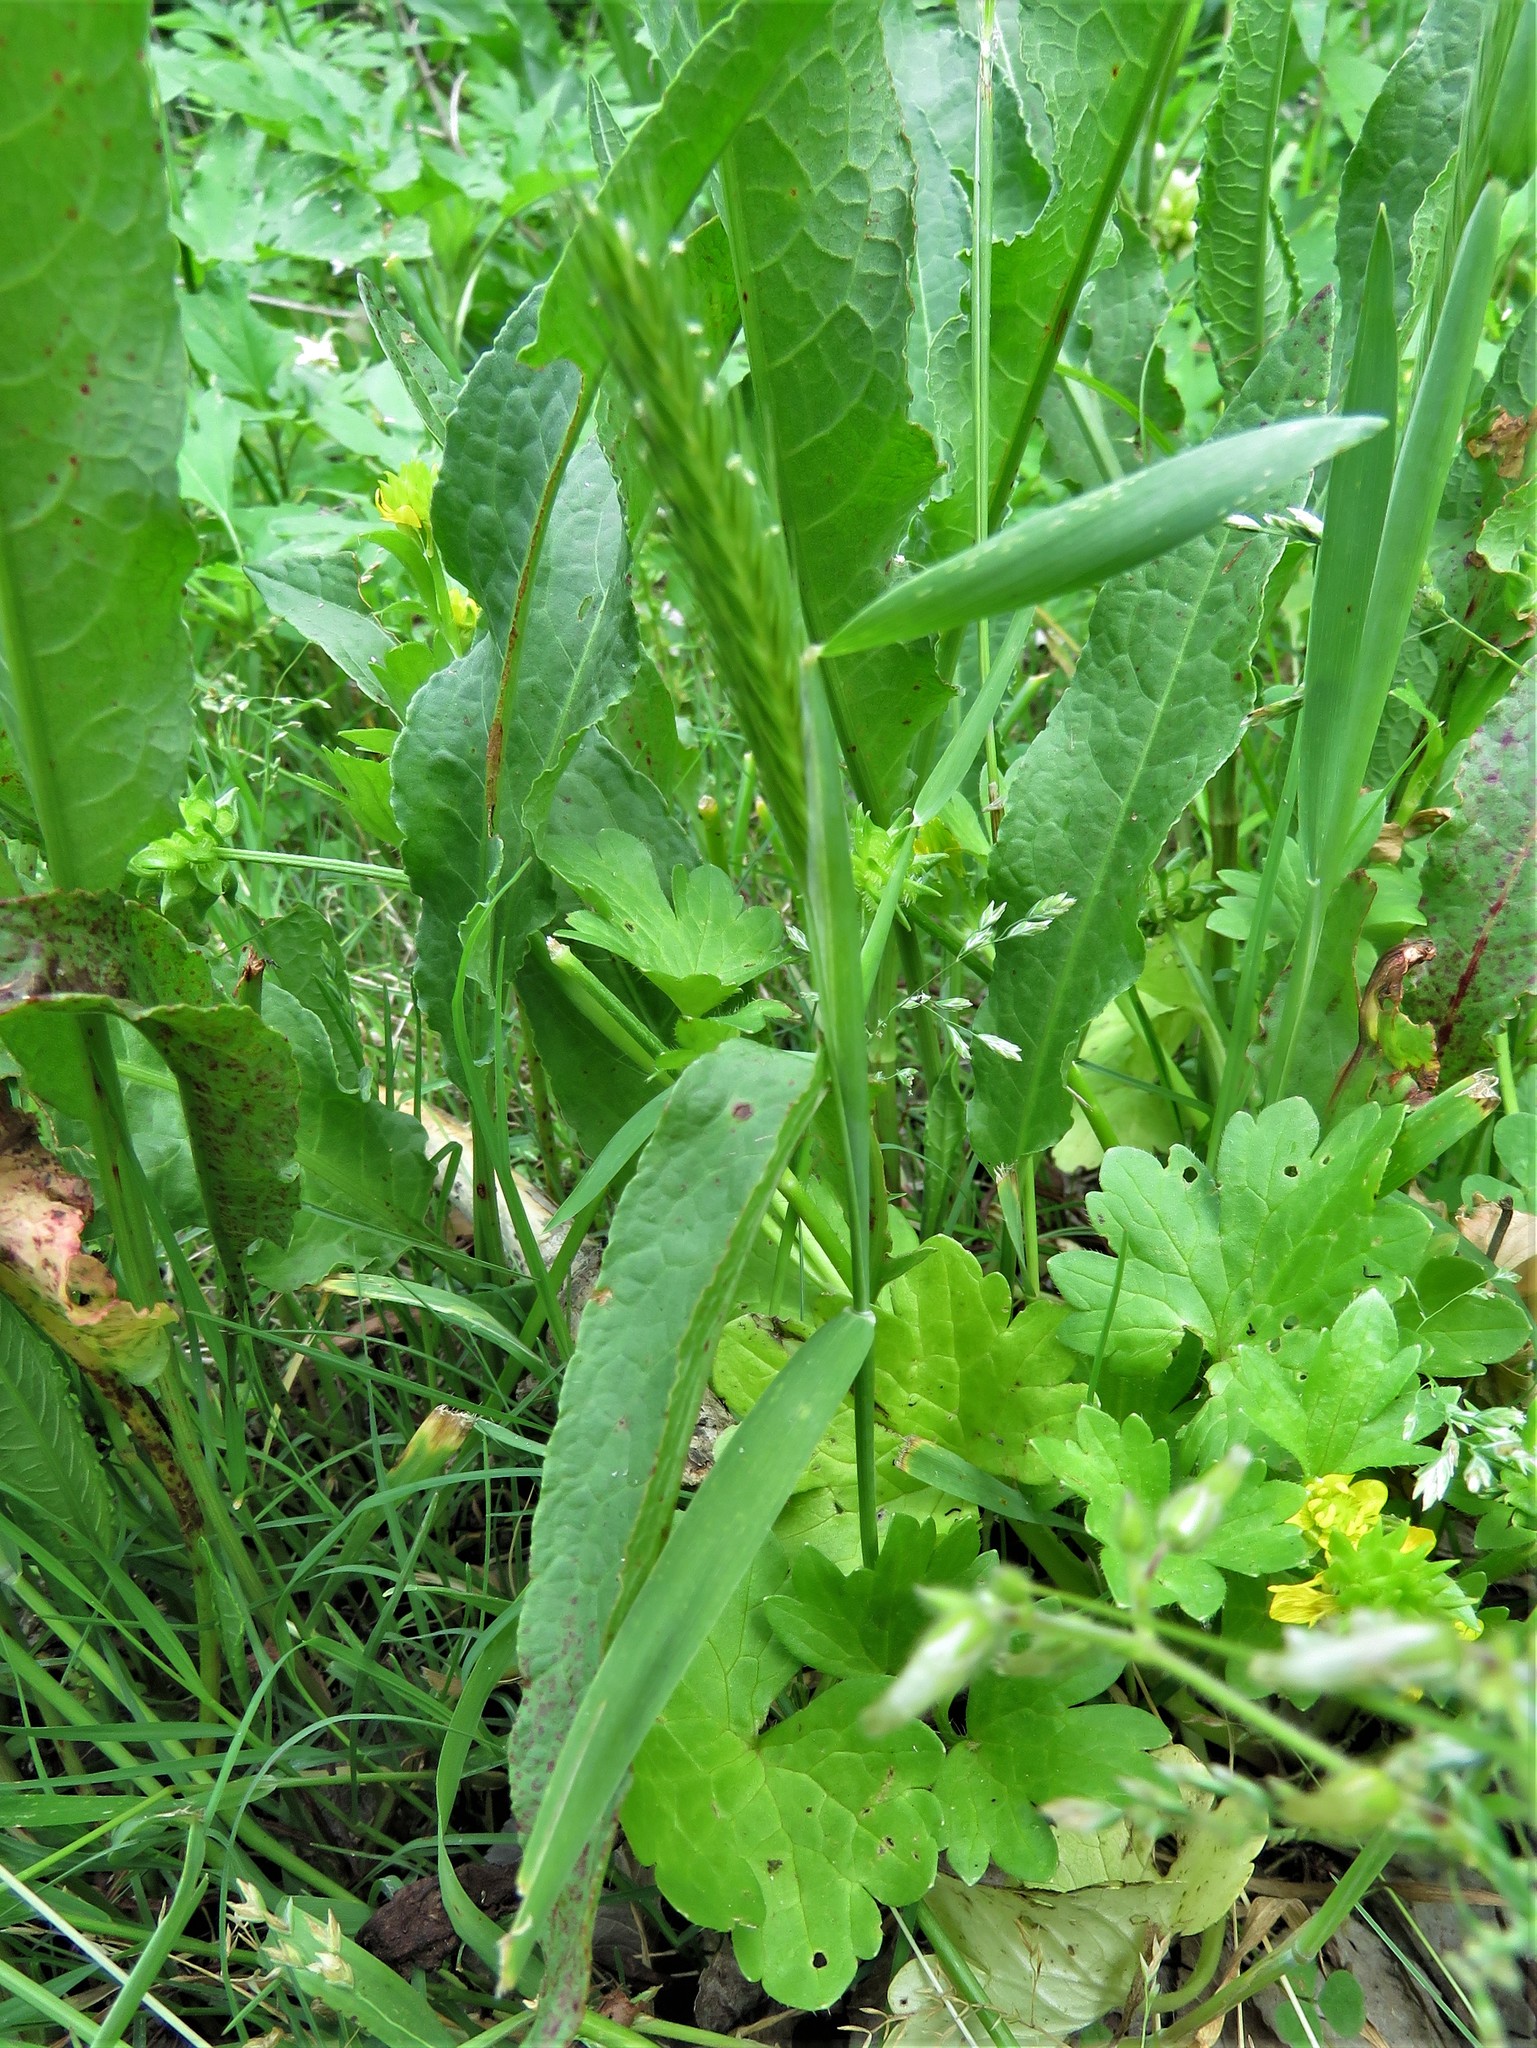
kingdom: Plantae
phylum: Tracheophyta
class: Liliopsida
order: Poales
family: Poaceae
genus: Hordeum
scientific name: Hordeum pusillum
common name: Little barley
